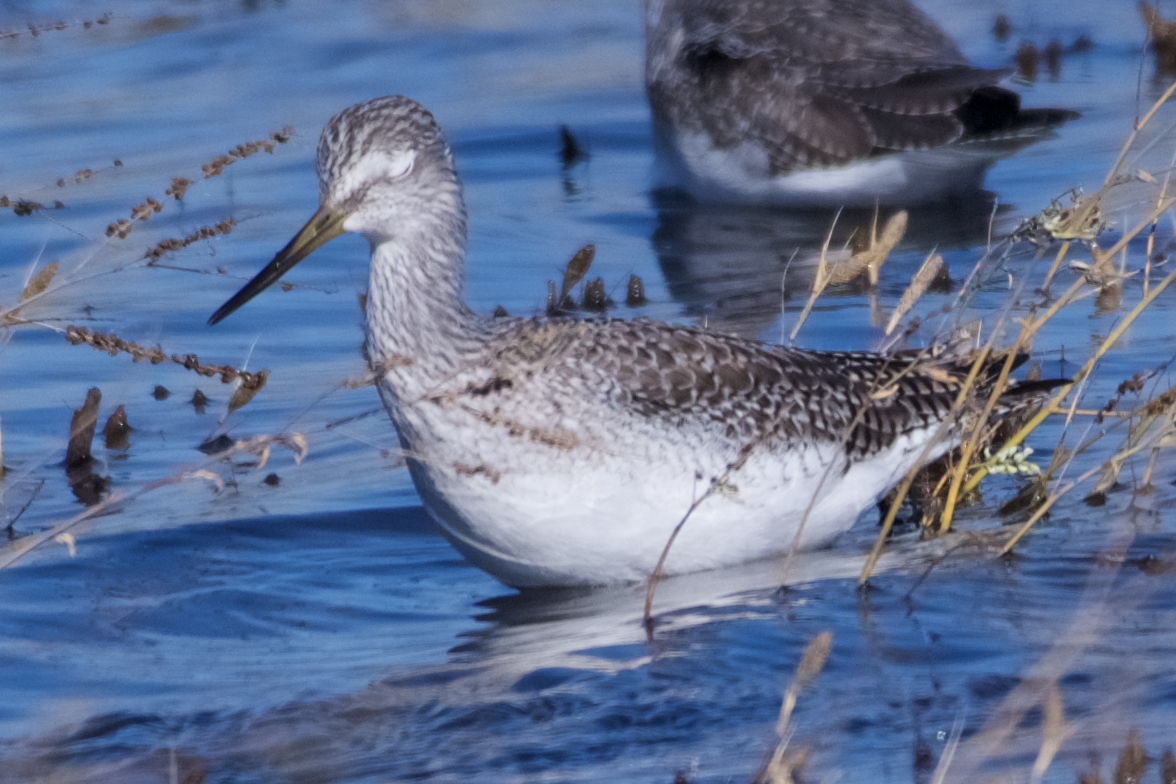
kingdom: Animalia
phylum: Chordata
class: Aves
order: Charadriiformes
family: Scolopacidae
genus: Tringa
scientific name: Tringa melanoleuca
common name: Greater yellowlegs
